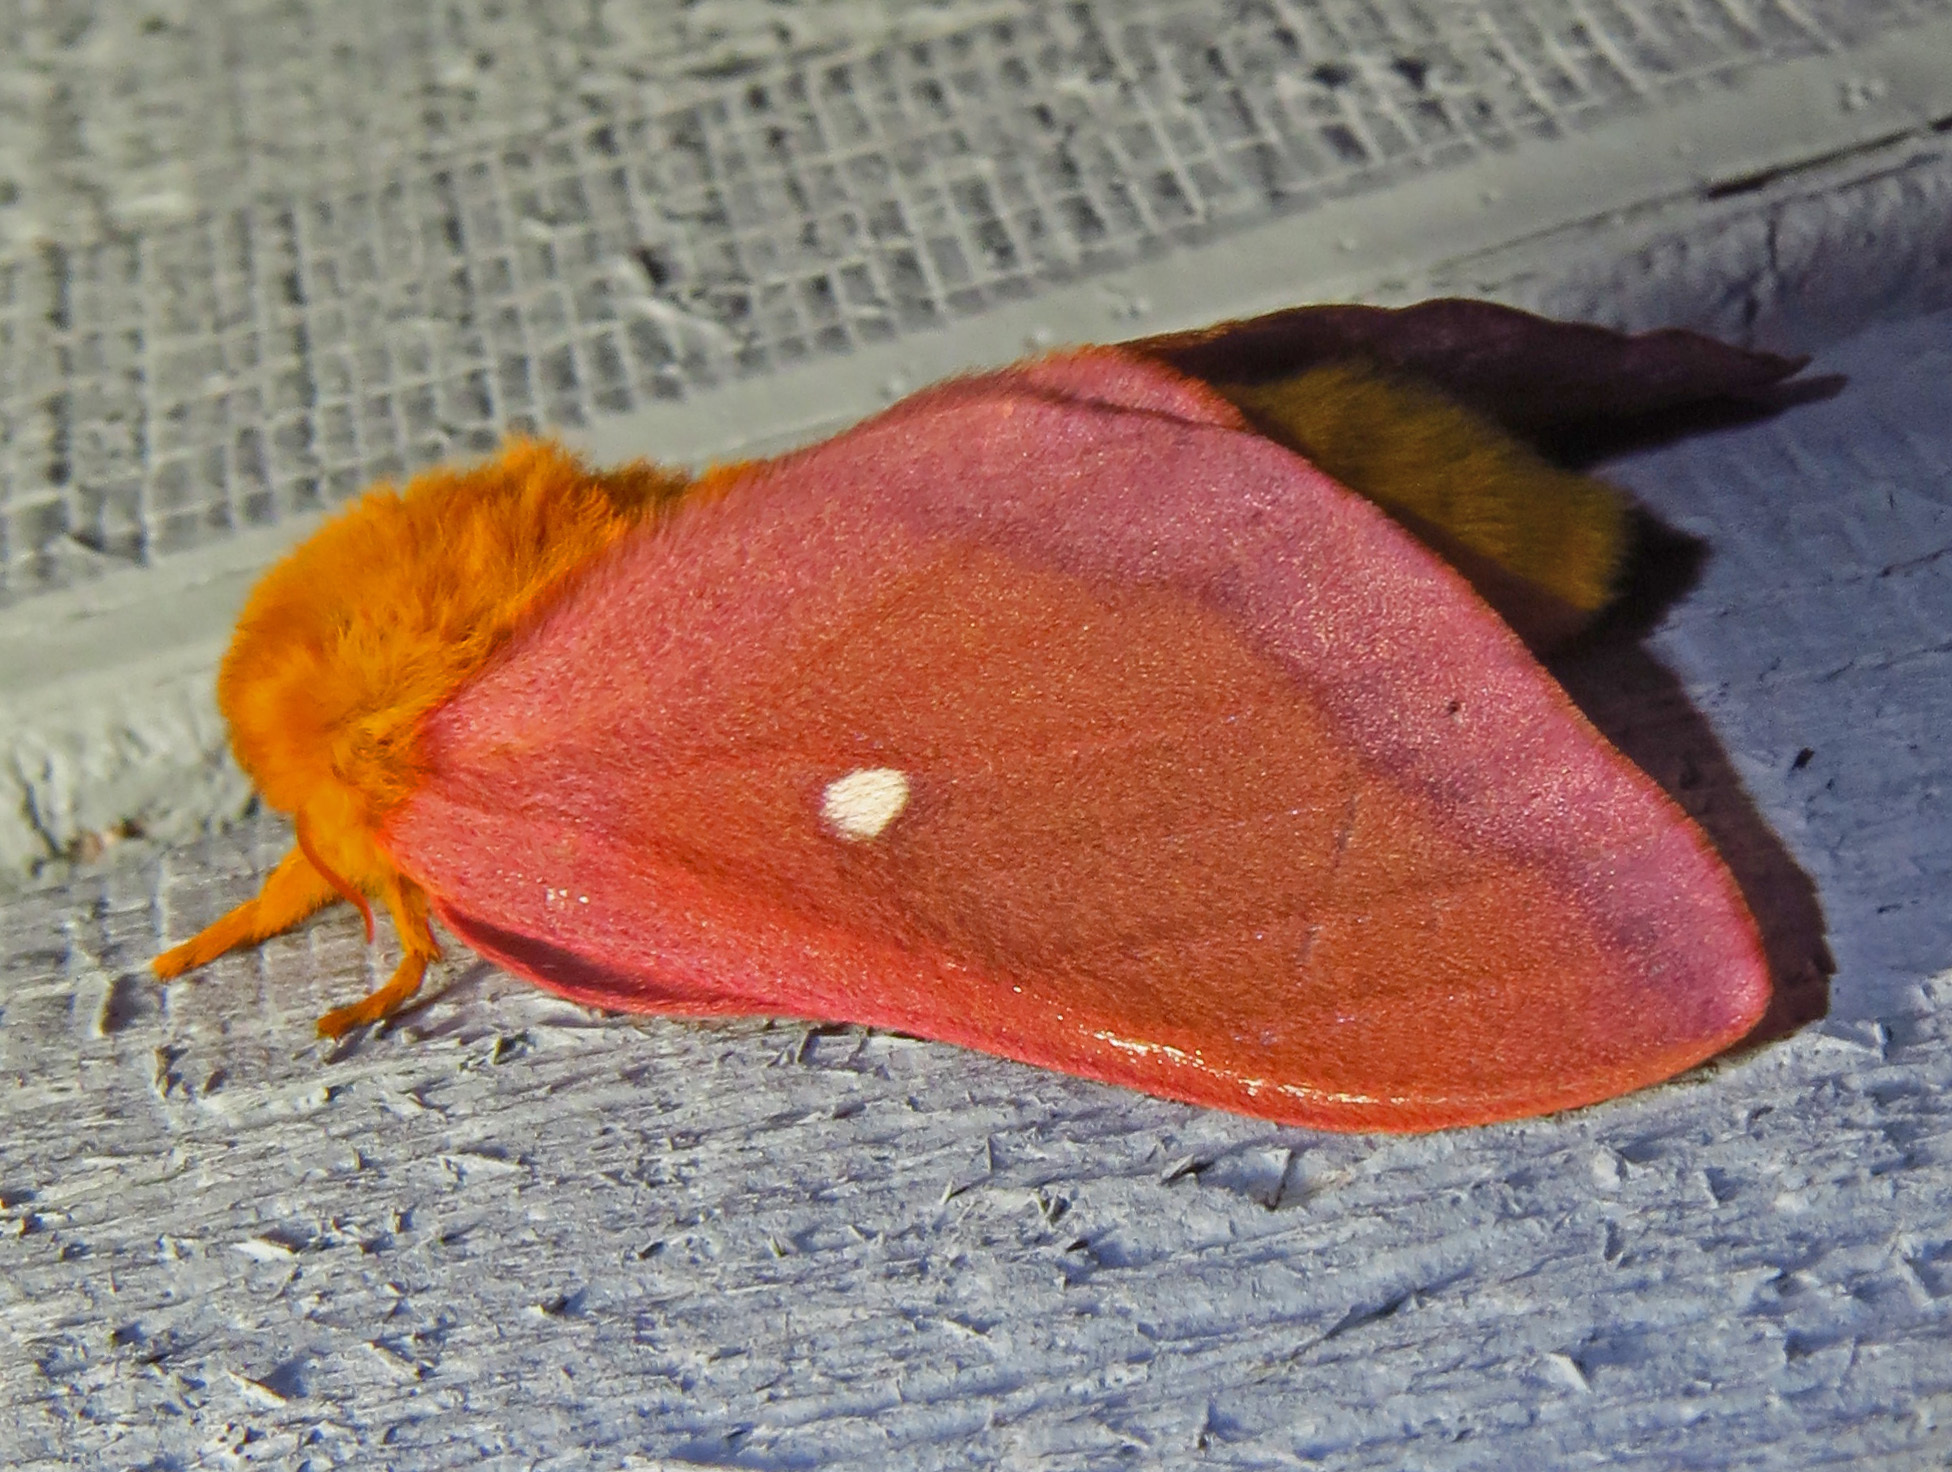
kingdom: Animalia
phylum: Arthropoda
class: Insecta
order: Lepidoptera
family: Saturniidae
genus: Anisota
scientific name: Anisota virginiensis
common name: Pink striped oakworm moth
